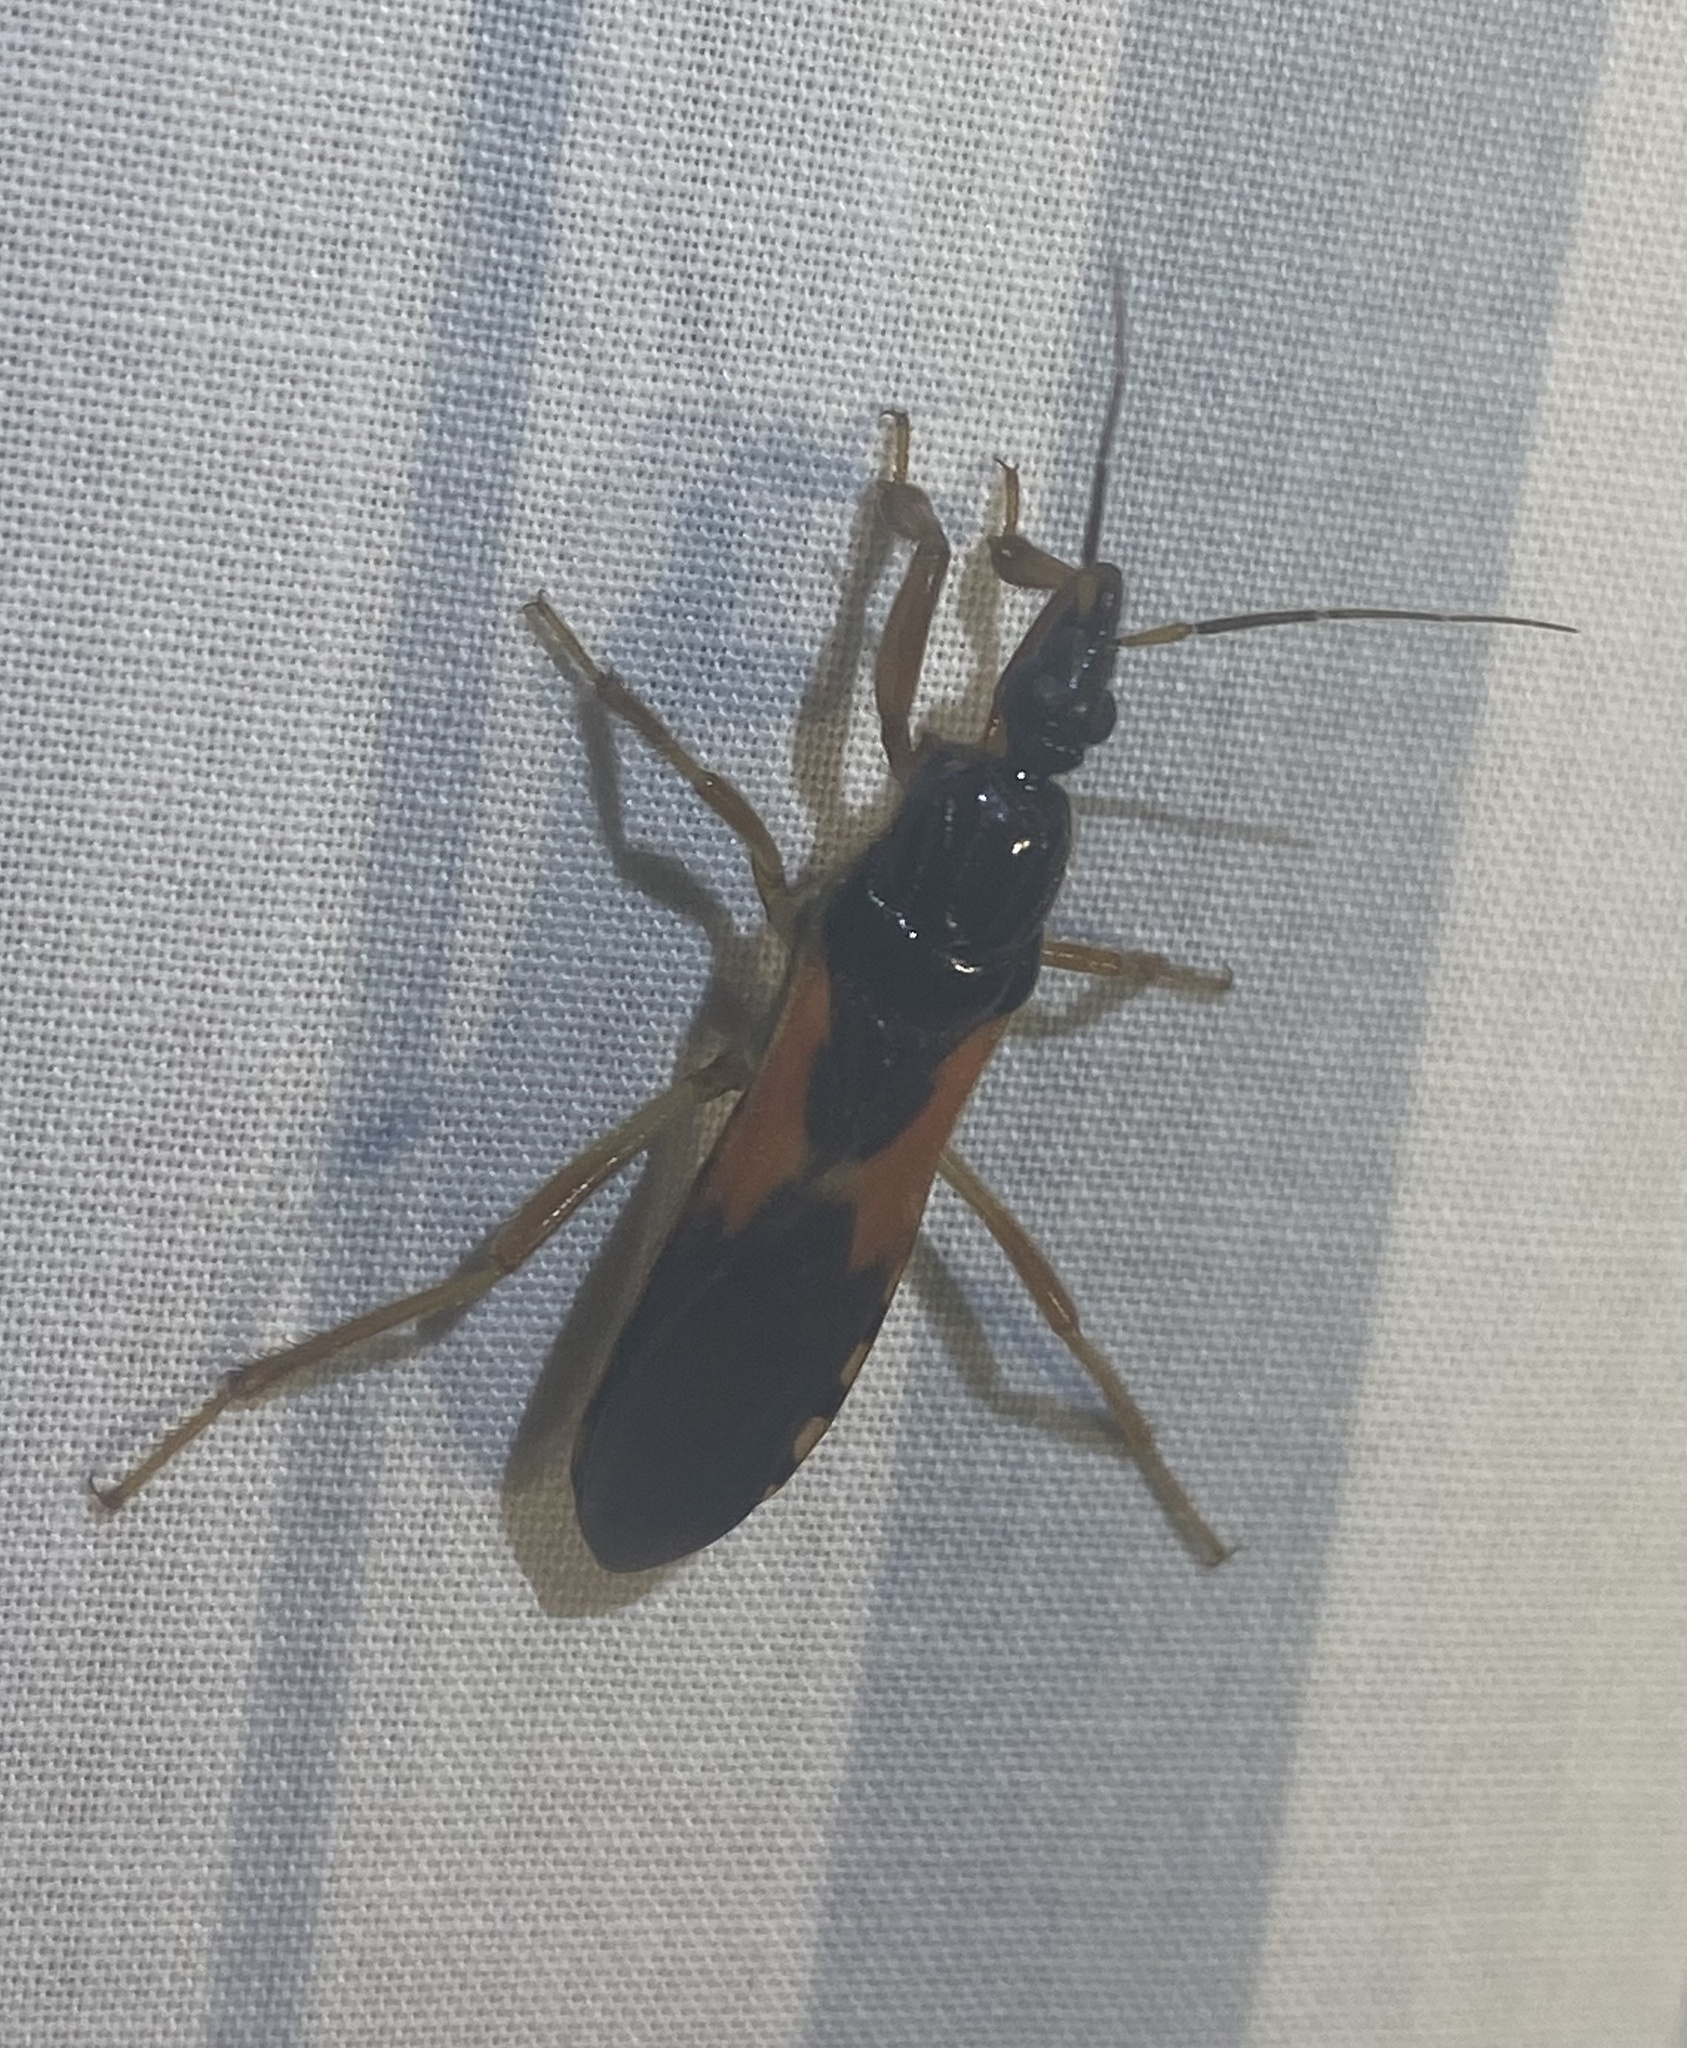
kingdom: Animalia
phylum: Arthropoda
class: Insecta
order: Hemiptera
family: Reduviidae
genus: Sirthenea
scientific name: Sirthenea stria
